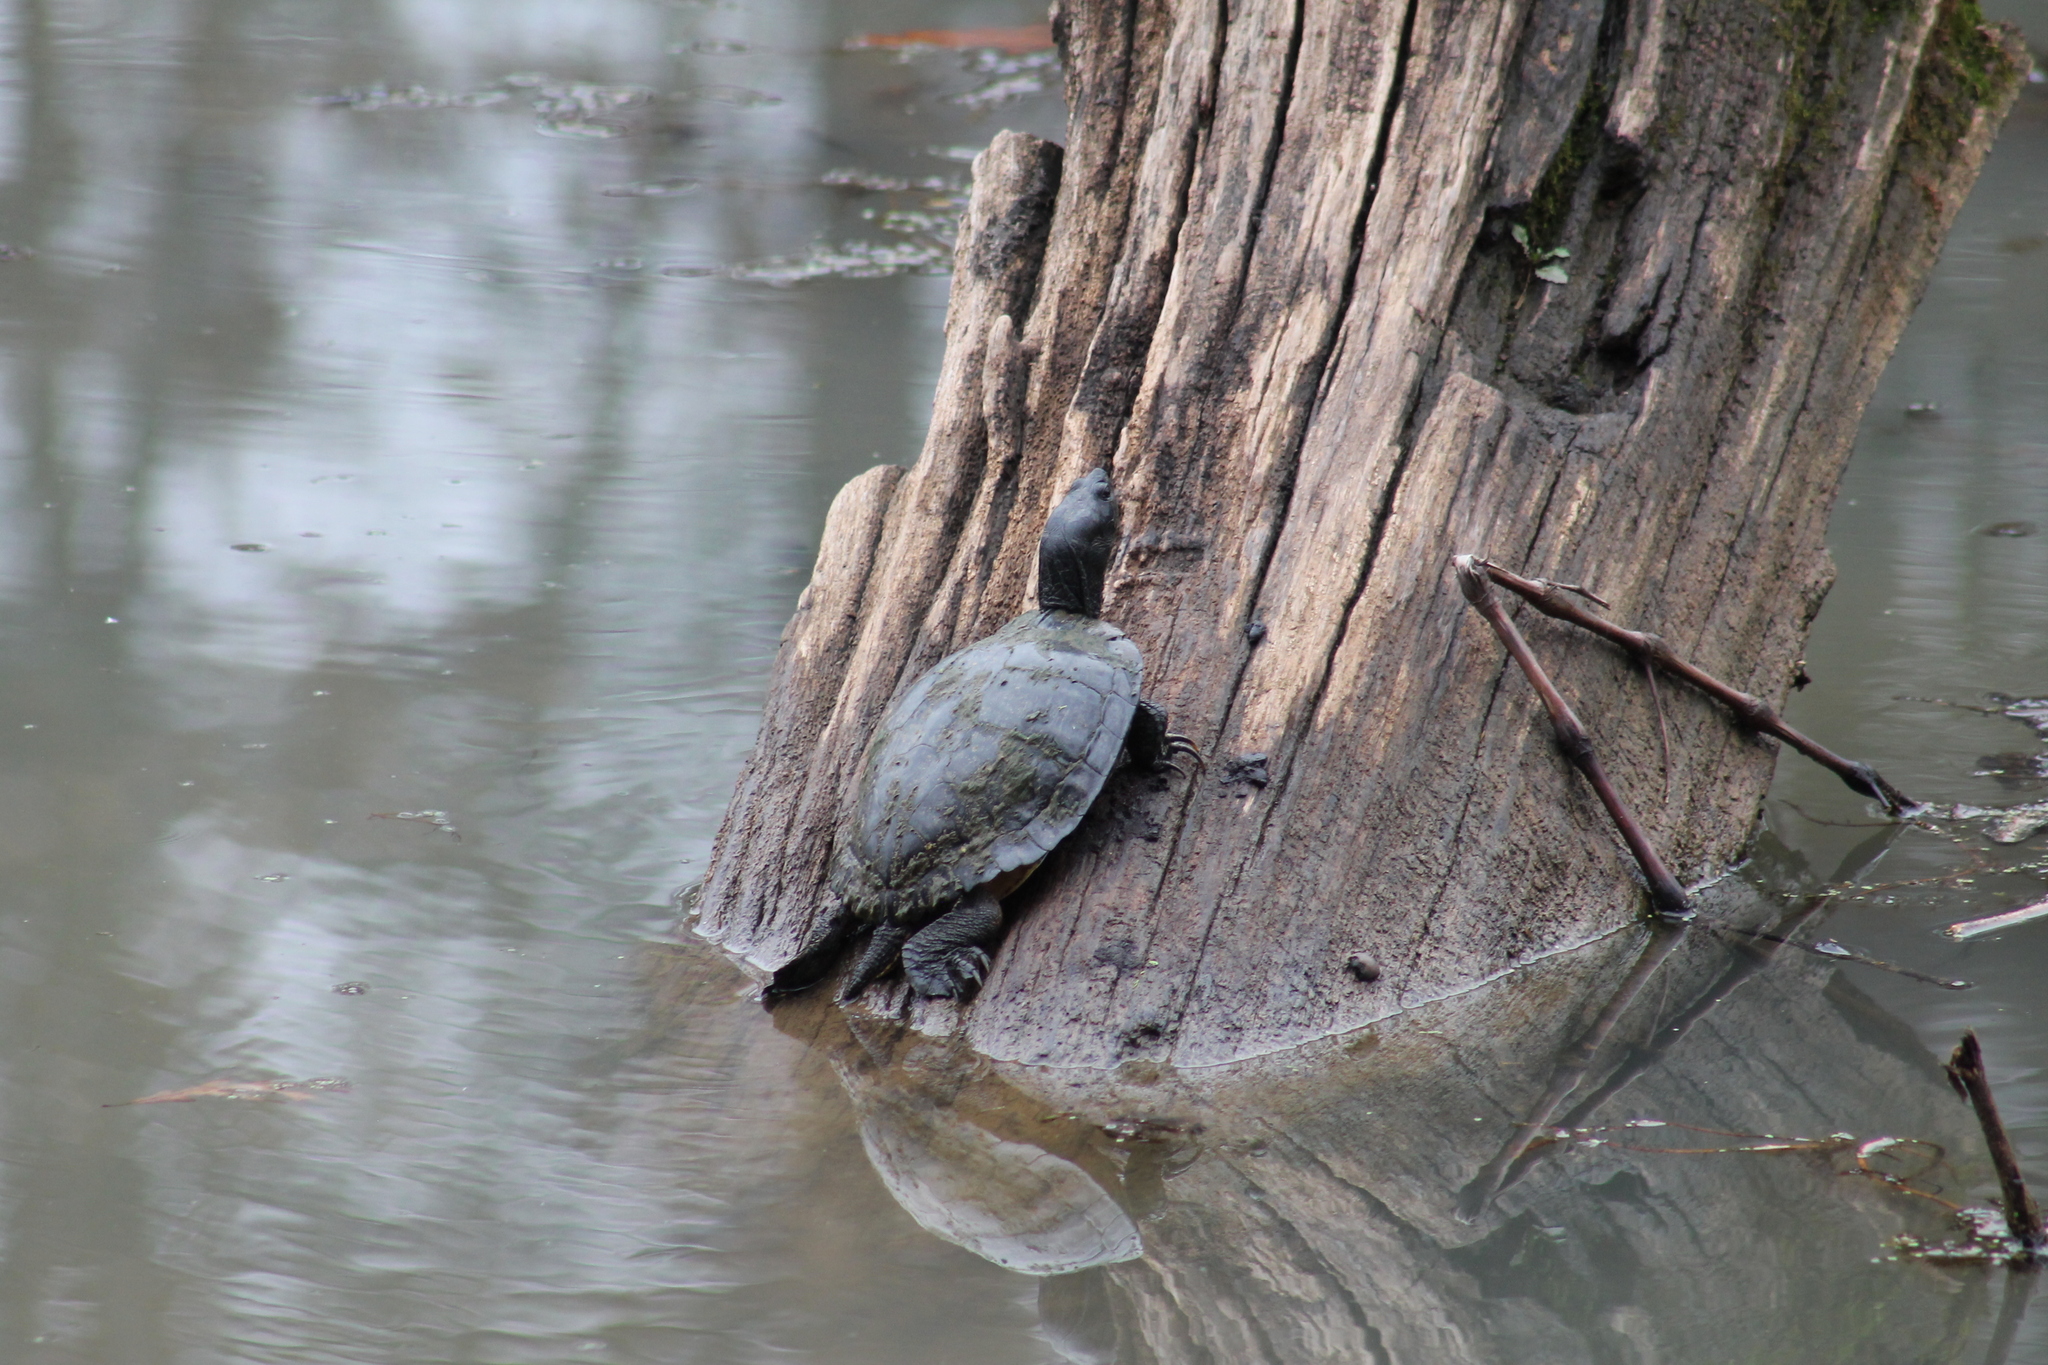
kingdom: Animalia
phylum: Chordata
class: Testudines
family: Emydidae
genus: Trachemys
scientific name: Trachemys scripta
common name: Slider
